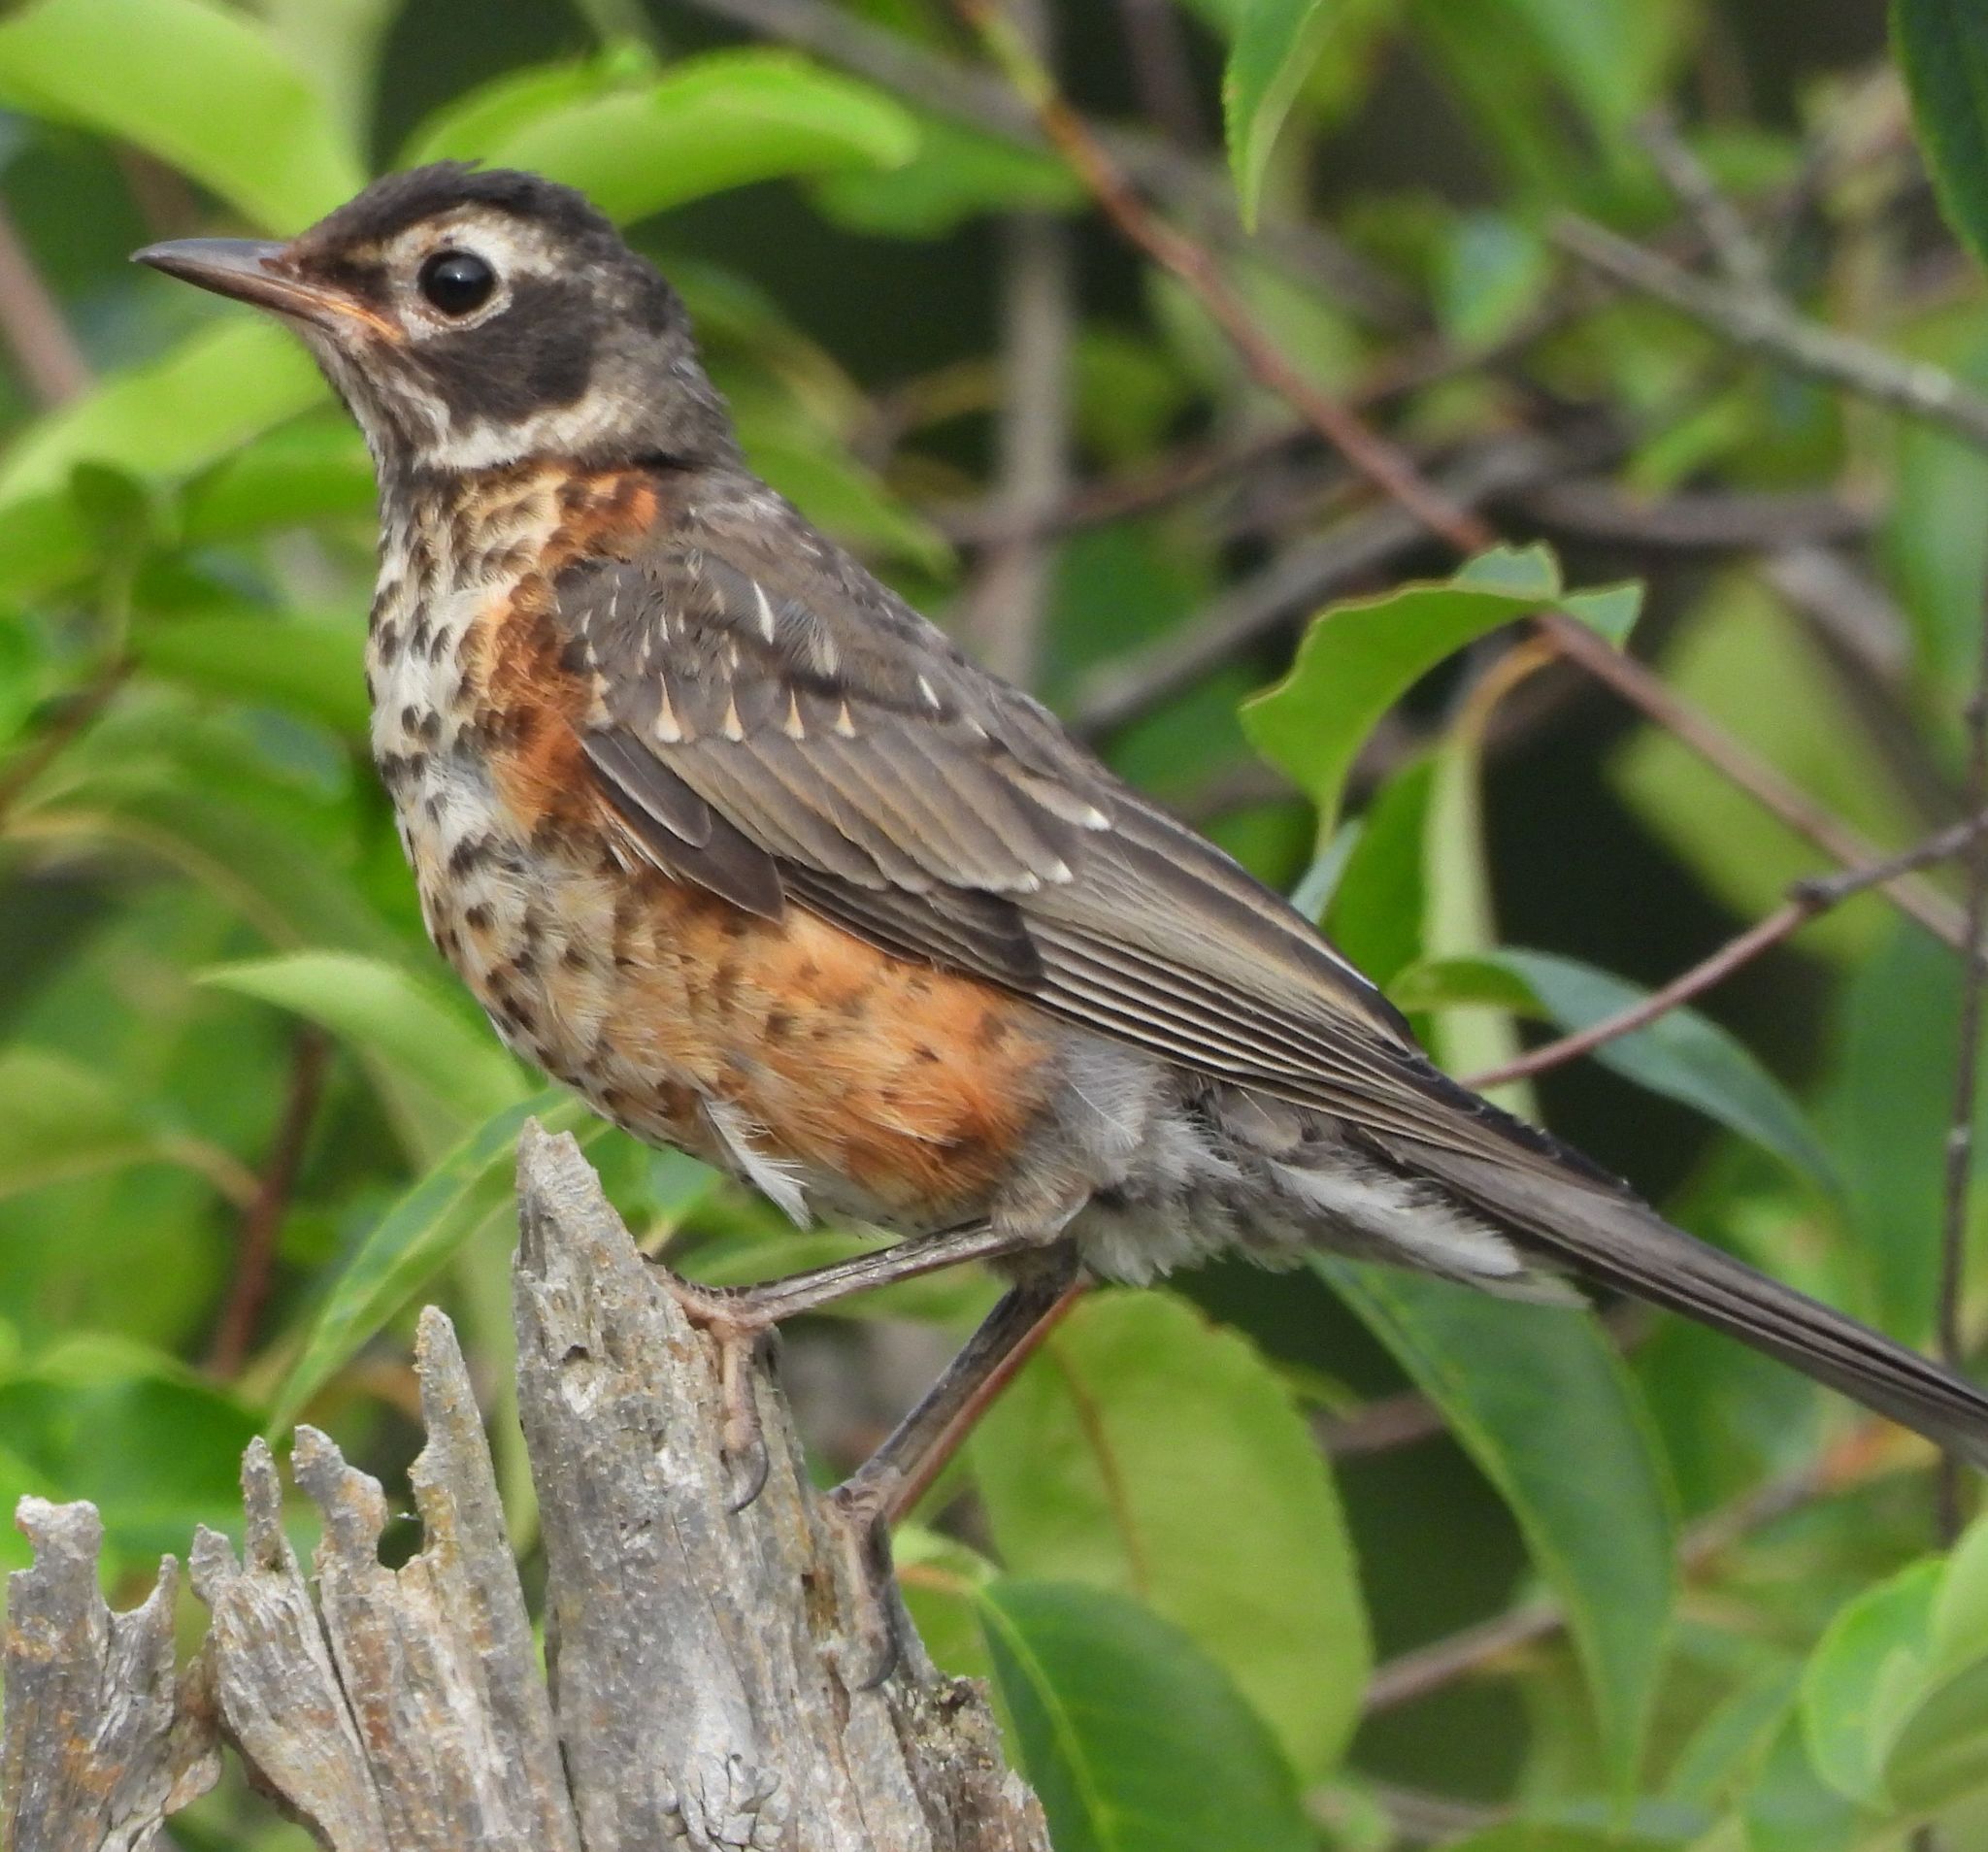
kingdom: Animalia
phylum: Chordata
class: Aves
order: Passeriformes
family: Turdidae
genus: Turdus
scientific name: Turdus migratorius
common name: American robin
